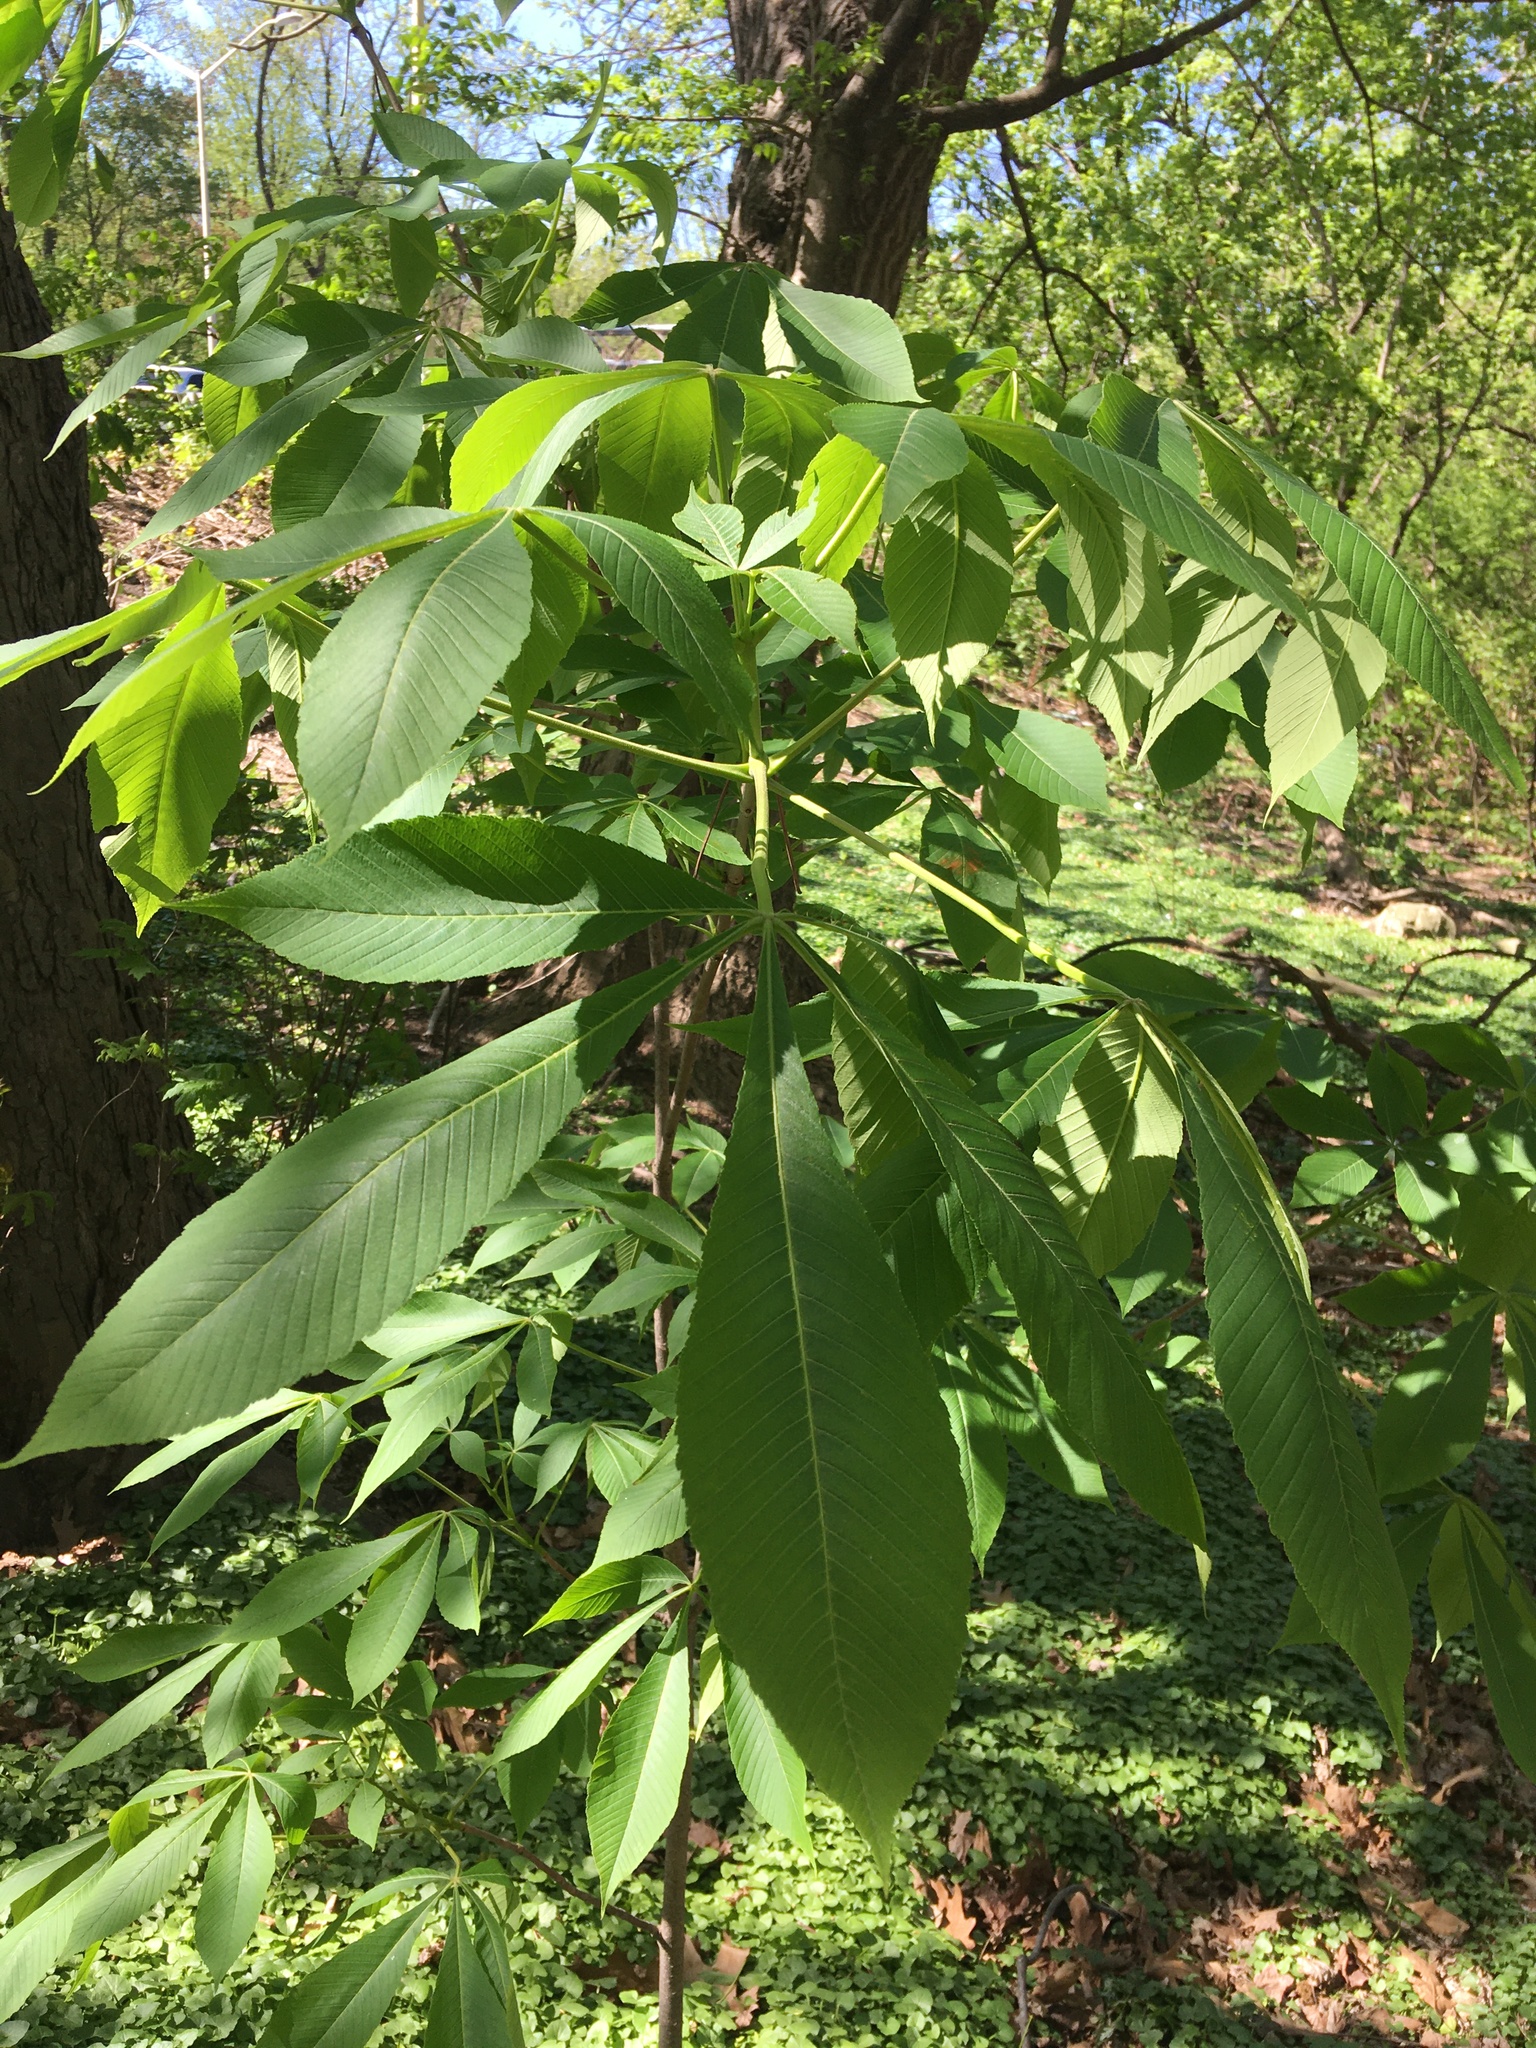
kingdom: Plantae
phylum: Tracheophyta
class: Magnoliopsida
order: Sapindales
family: Sapindaceae
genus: Aesculus
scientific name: Aesculus flava
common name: Yellow buckeye
